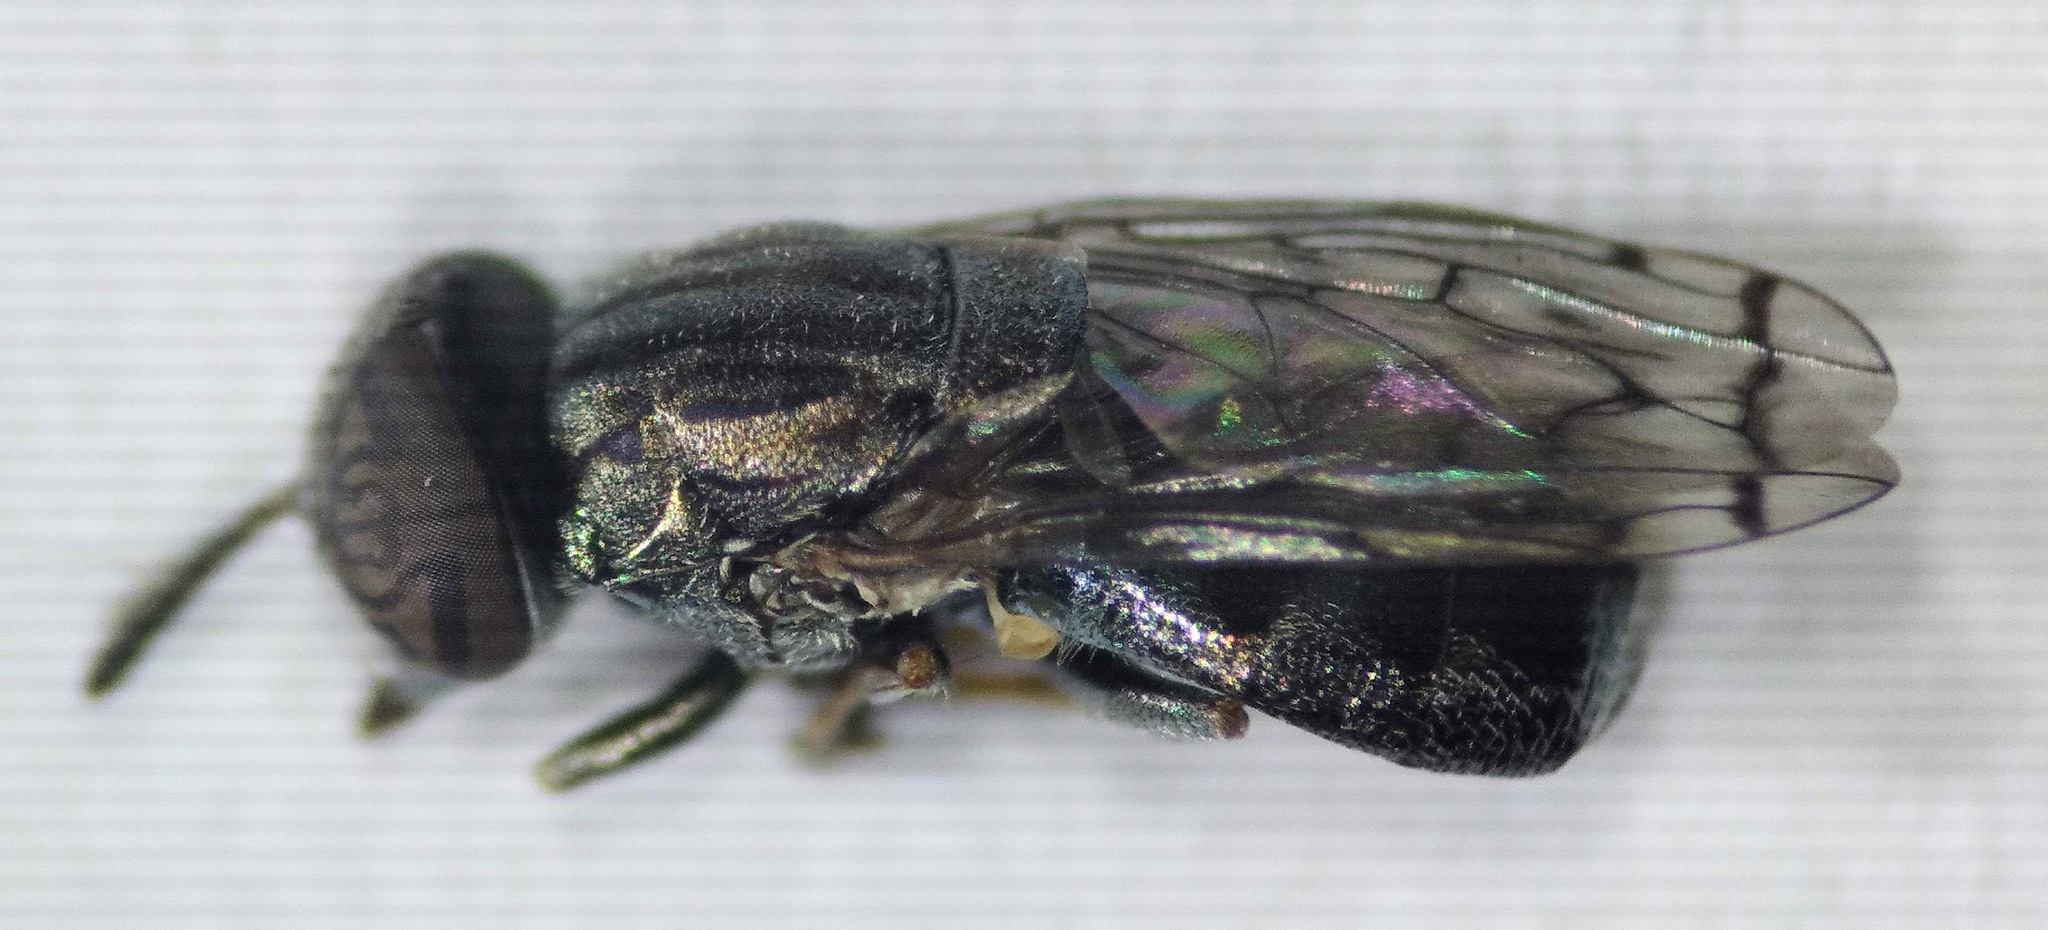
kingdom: Animalia
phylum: Arthropoda
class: Insecta
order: Diptera
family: Syrphidae
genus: Orthonevra
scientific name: Orthonevra nitida
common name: Wavy mucksucker
